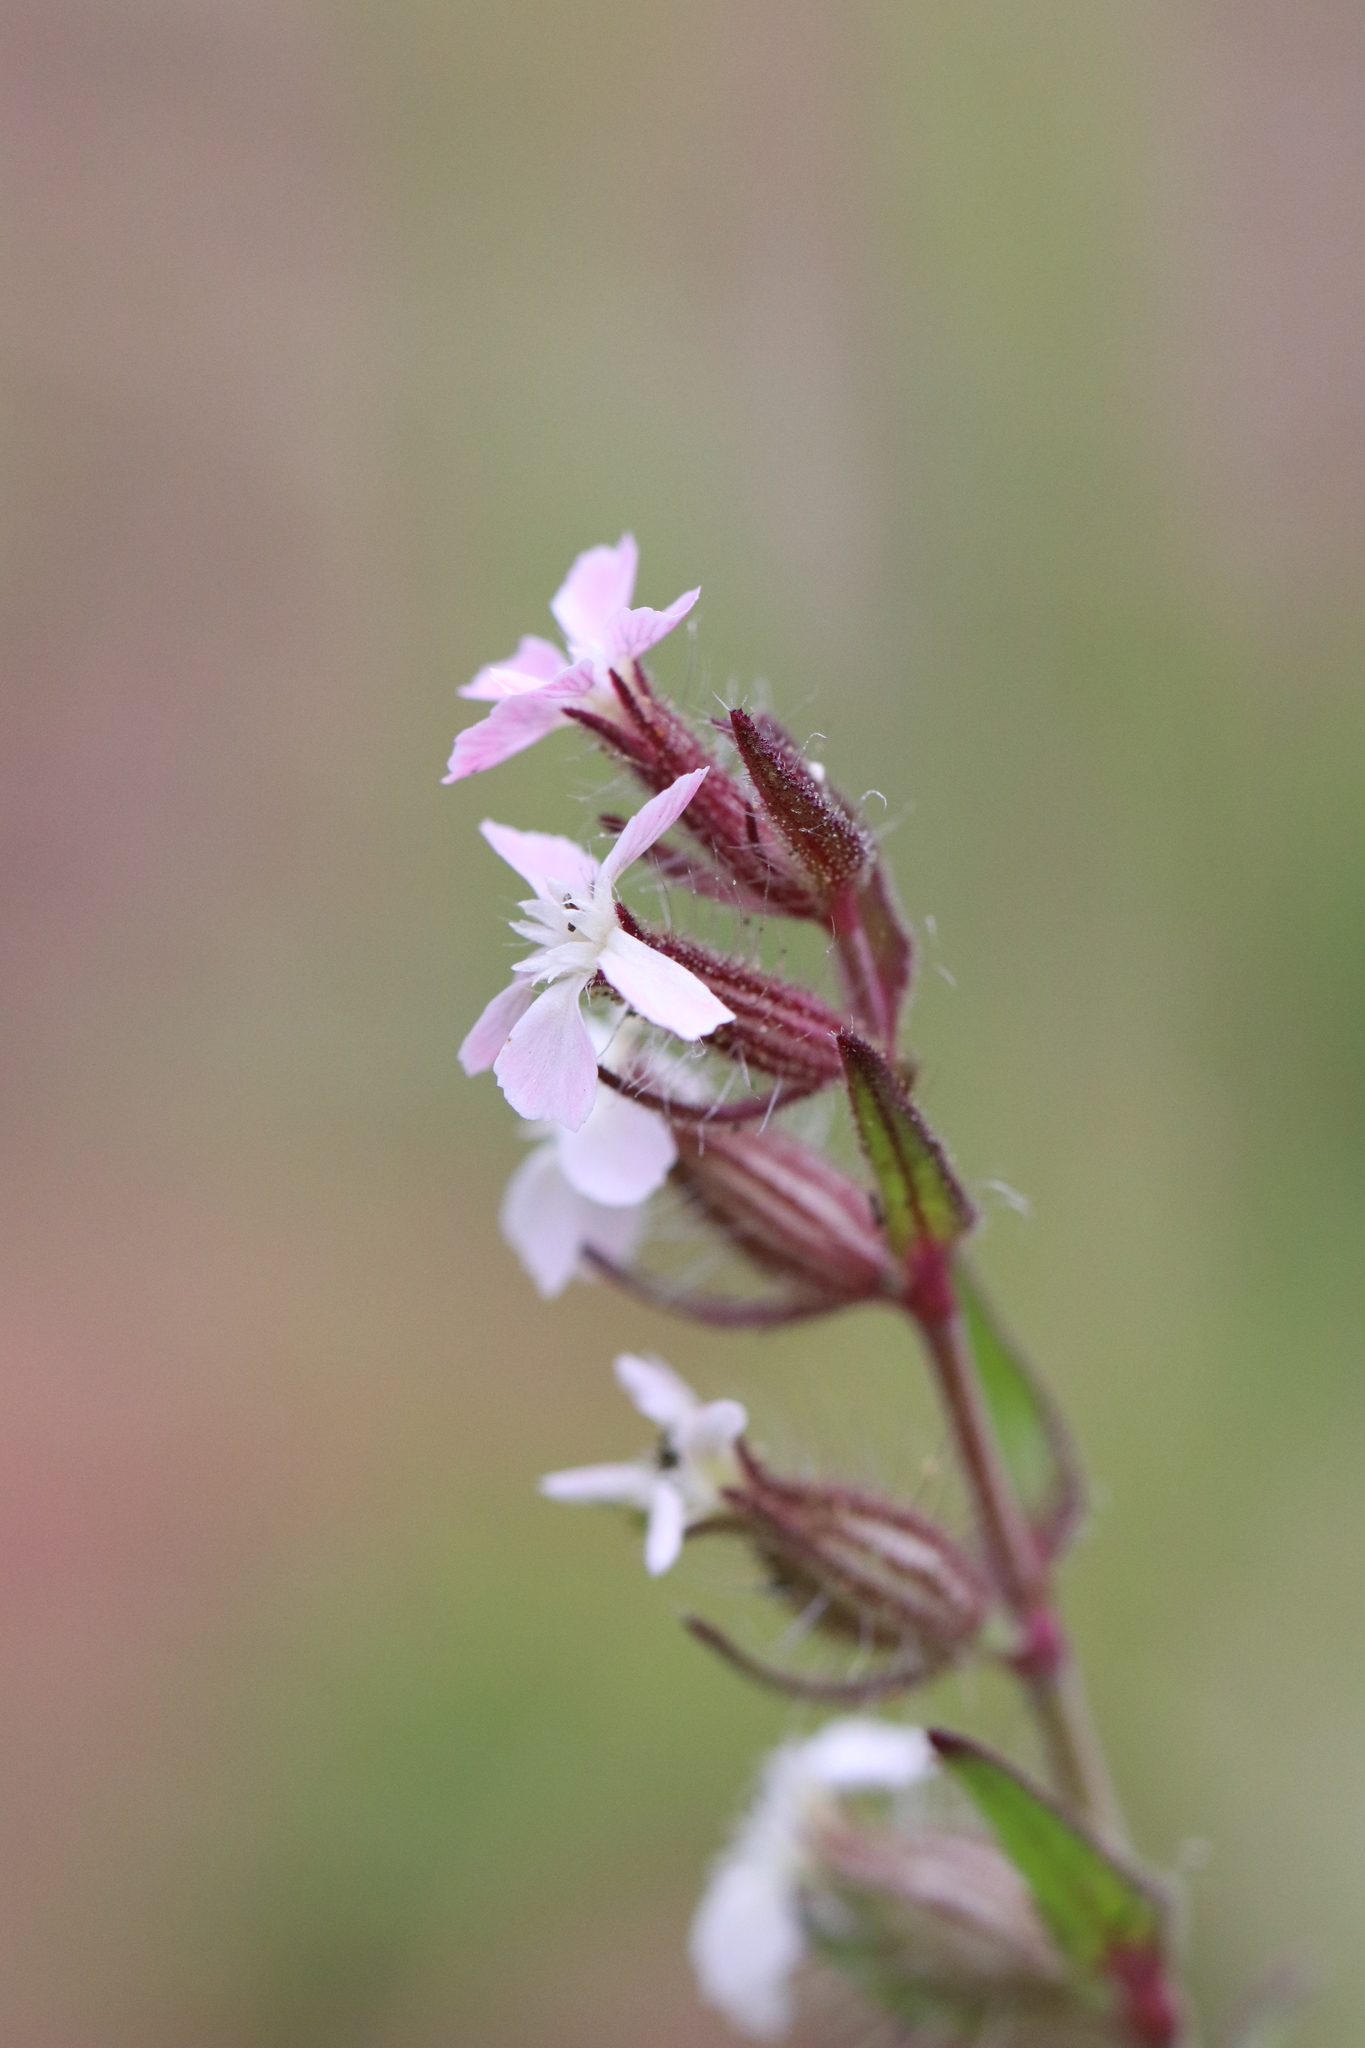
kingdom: Plantae
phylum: Tracheophyta
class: Magnoliopsida
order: Caryophyllales
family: Caryophyllaceae
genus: Silene
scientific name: Silene gallica
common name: Small-flowered catchfly
